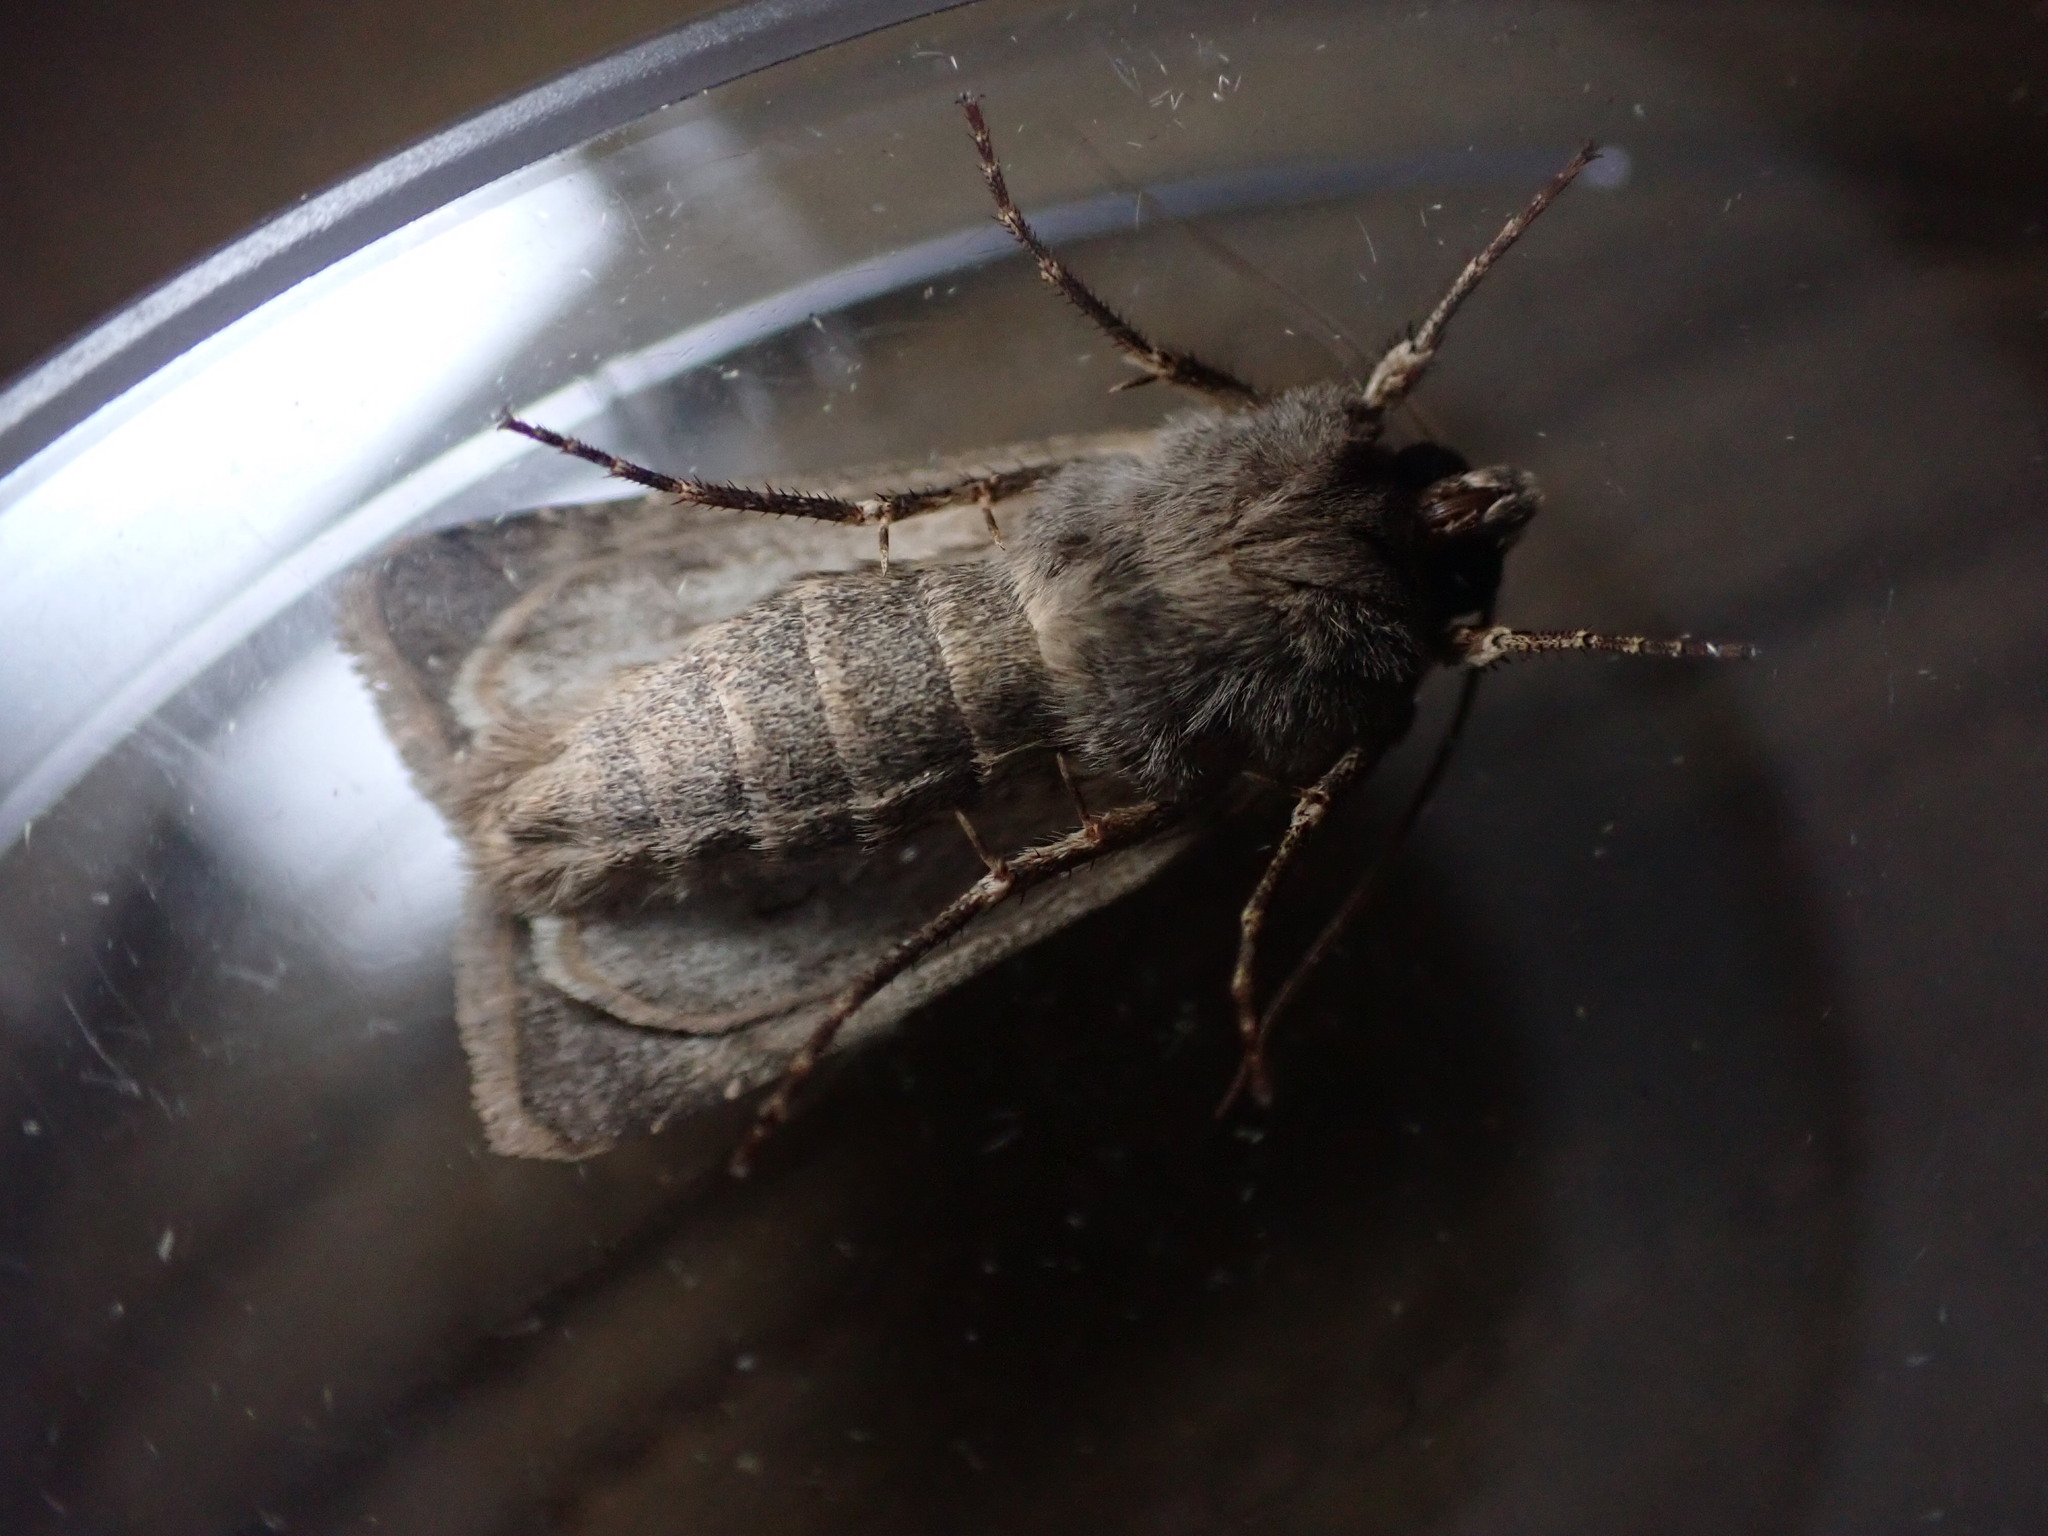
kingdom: Animalia
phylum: Arthropoda
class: Insecta
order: Lepidoptera
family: Noctuidae
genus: Agrotis
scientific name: Agrotis exclamationis
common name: Heart and dart
